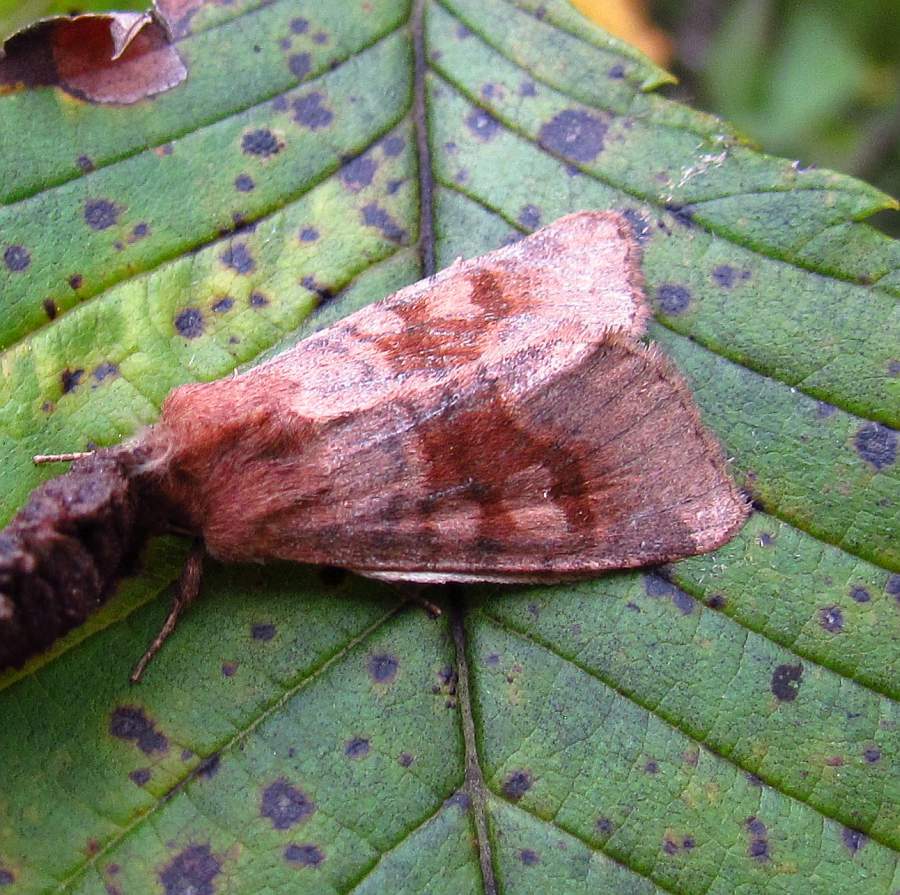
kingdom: Animalia
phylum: Arthropoda
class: Insecta
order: Lepidoptera
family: Noctuidae
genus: Nephelodes
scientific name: Nephelodes minians
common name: Bronzed cutworm
